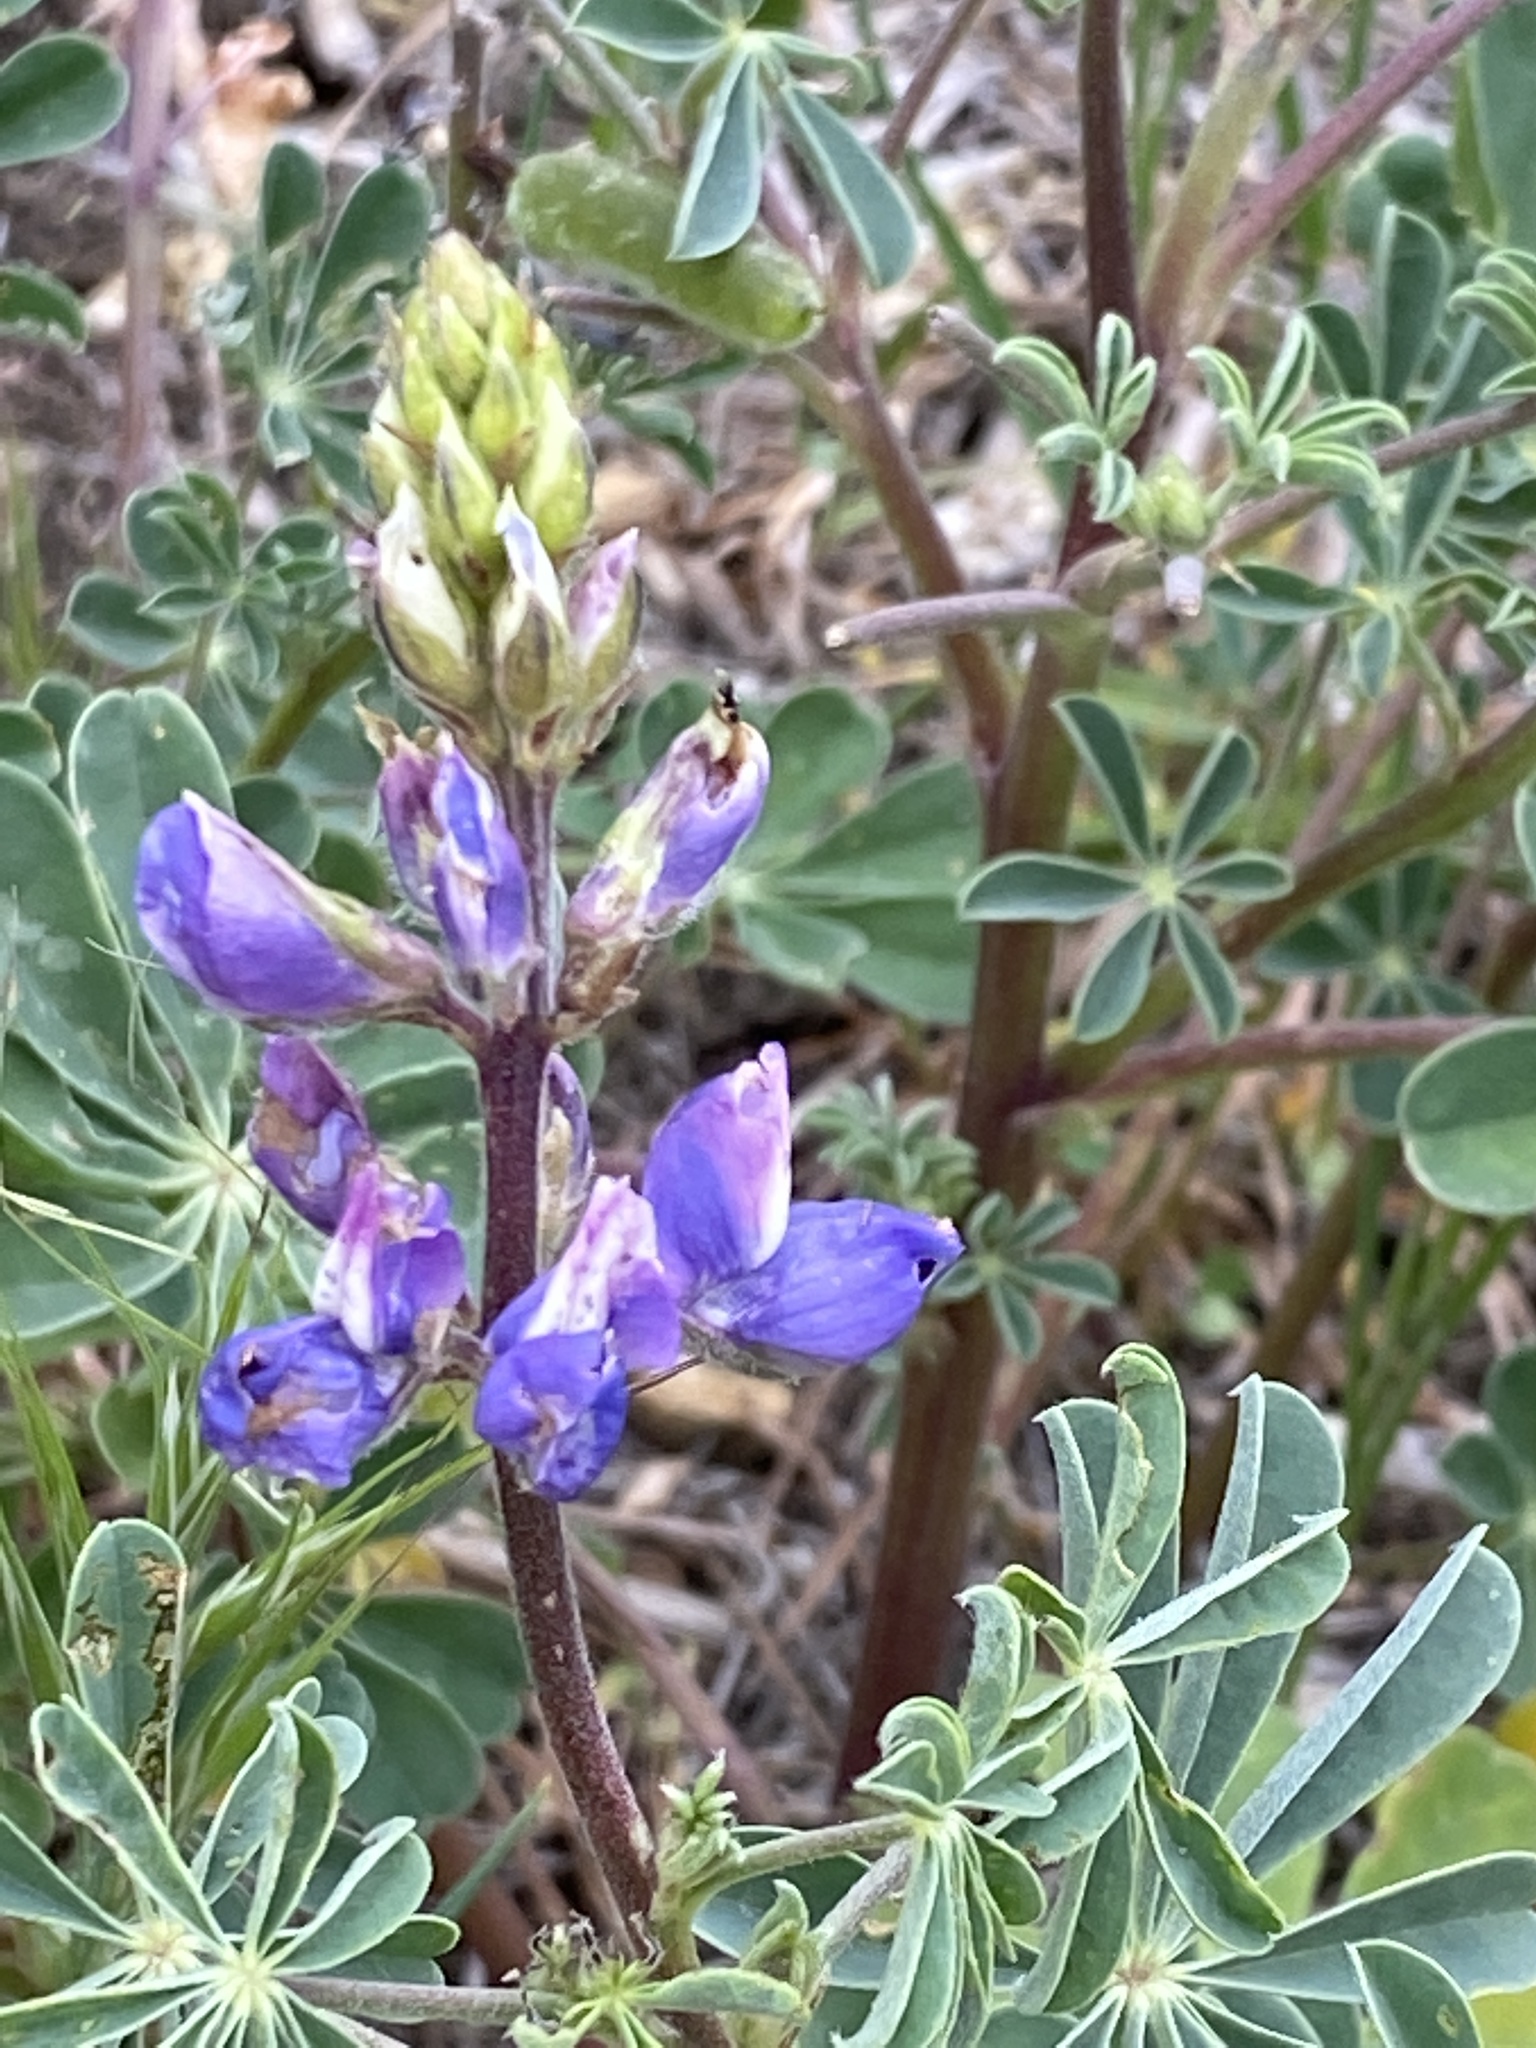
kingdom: Plantae
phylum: Tracheophyta
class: Magnoliopsida
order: Fabales
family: Fabaceae
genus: Lupinus
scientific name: Lupinus succulentus
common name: Arroyo lupine
